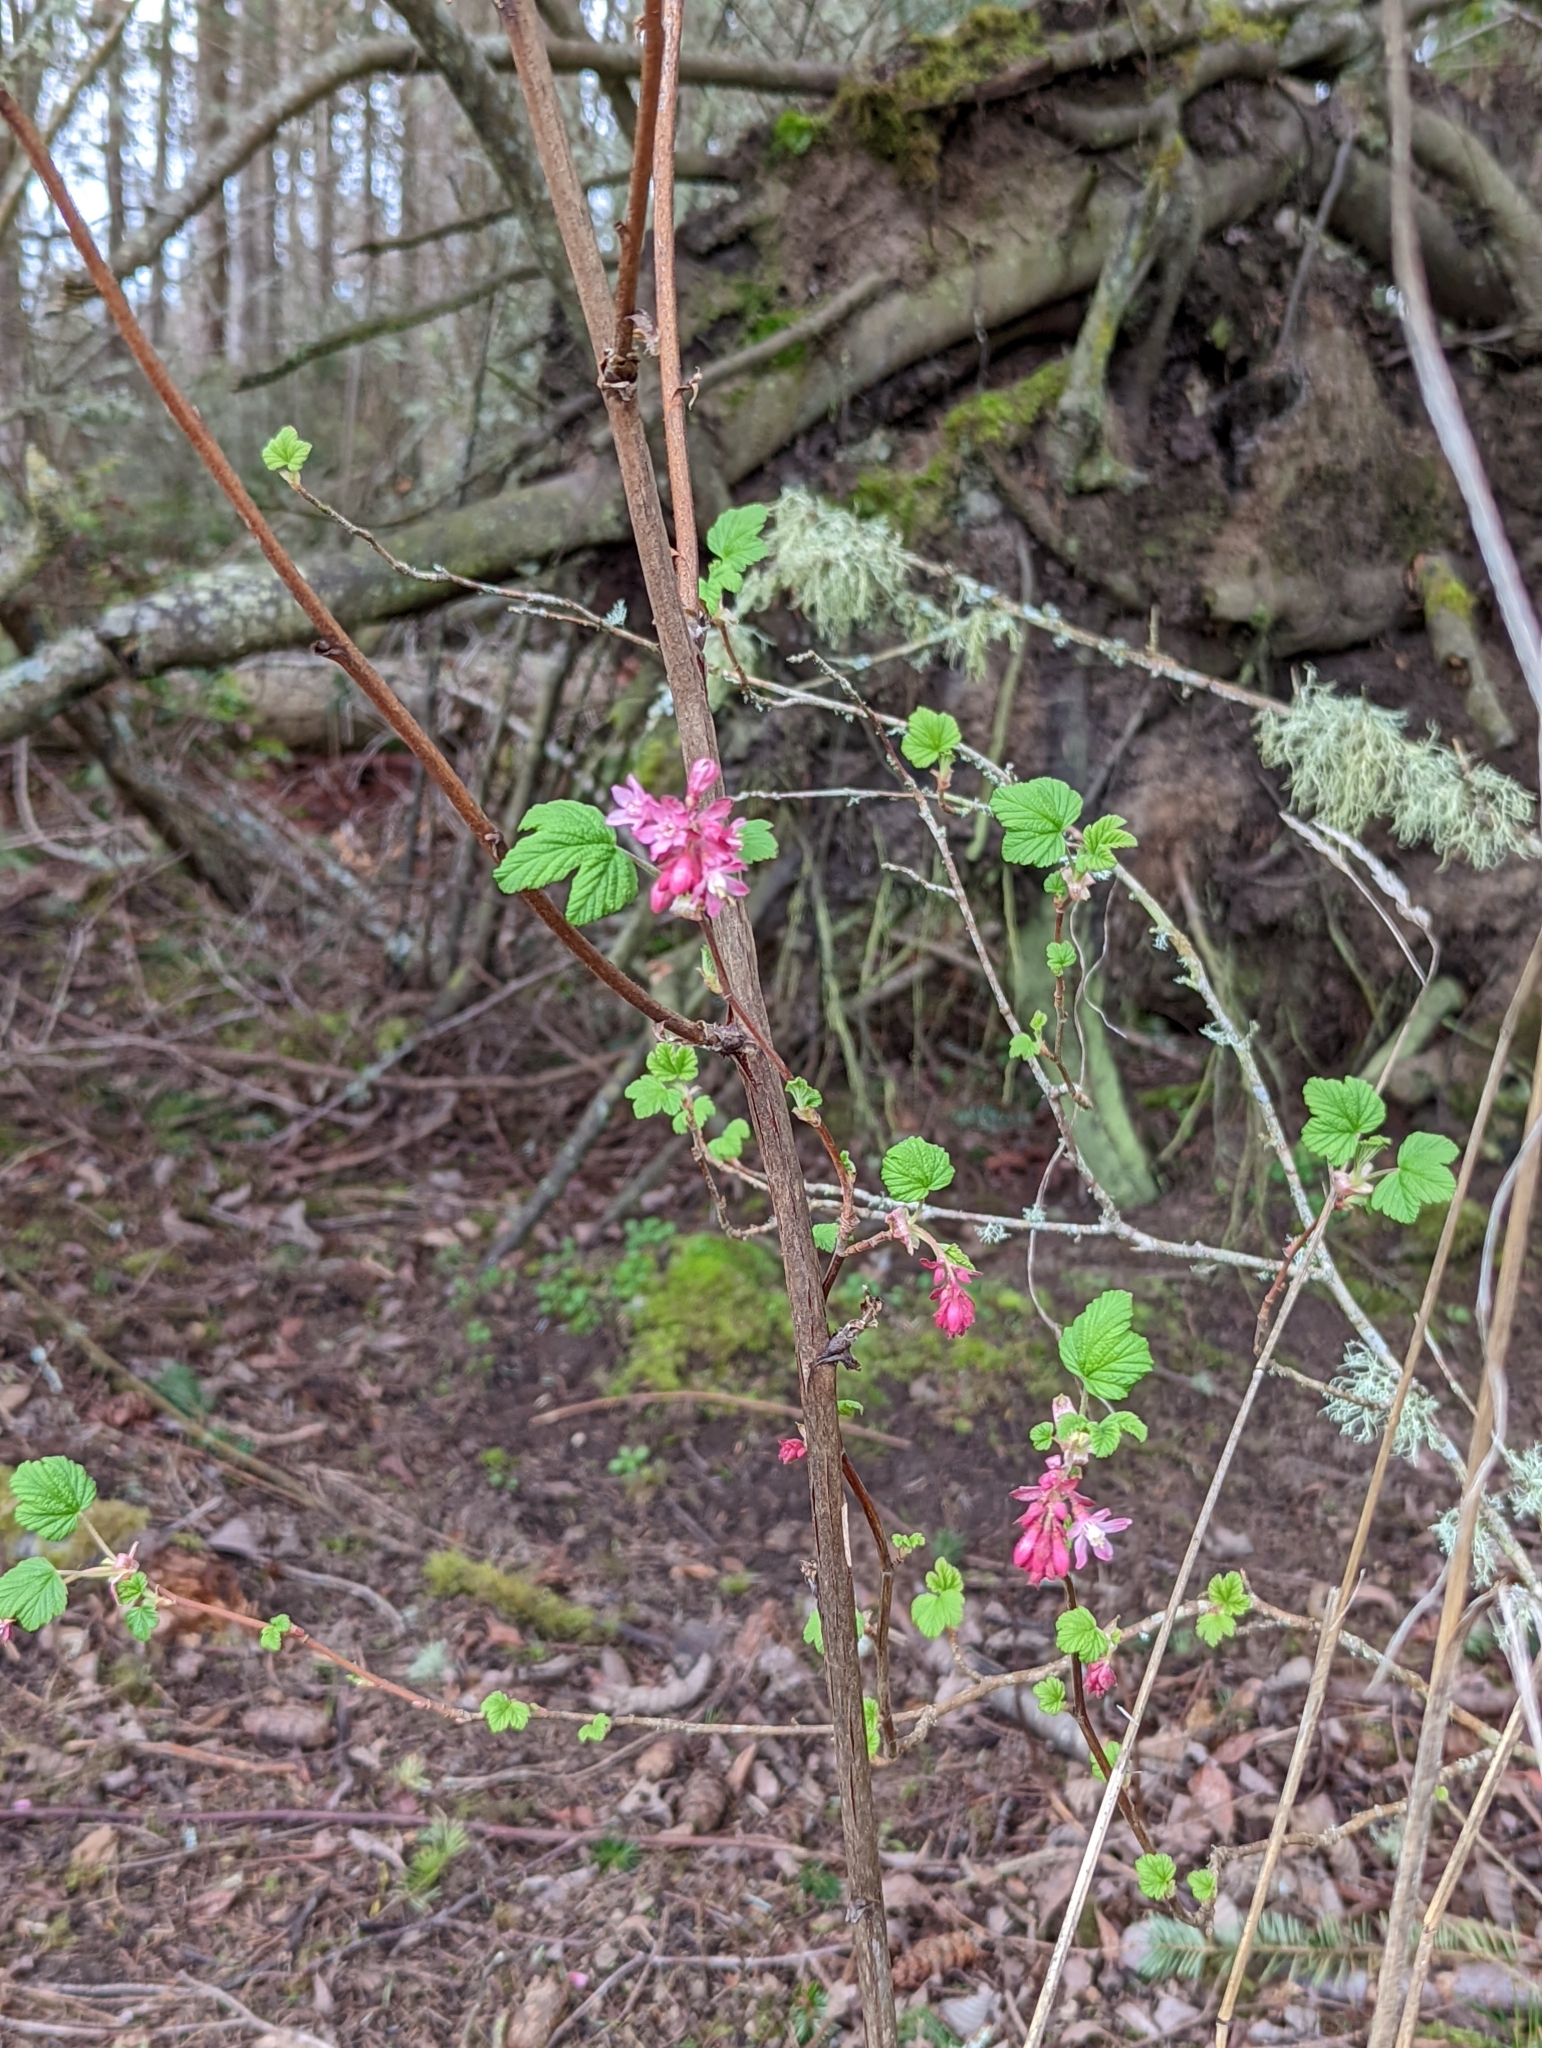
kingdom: Plantae
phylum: Tracheophyta
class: Magnoliopsida
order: Saxifragales
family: Grossulariaceae
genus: Ribes
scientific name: Ribes sanguineum
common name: Flowering currant
